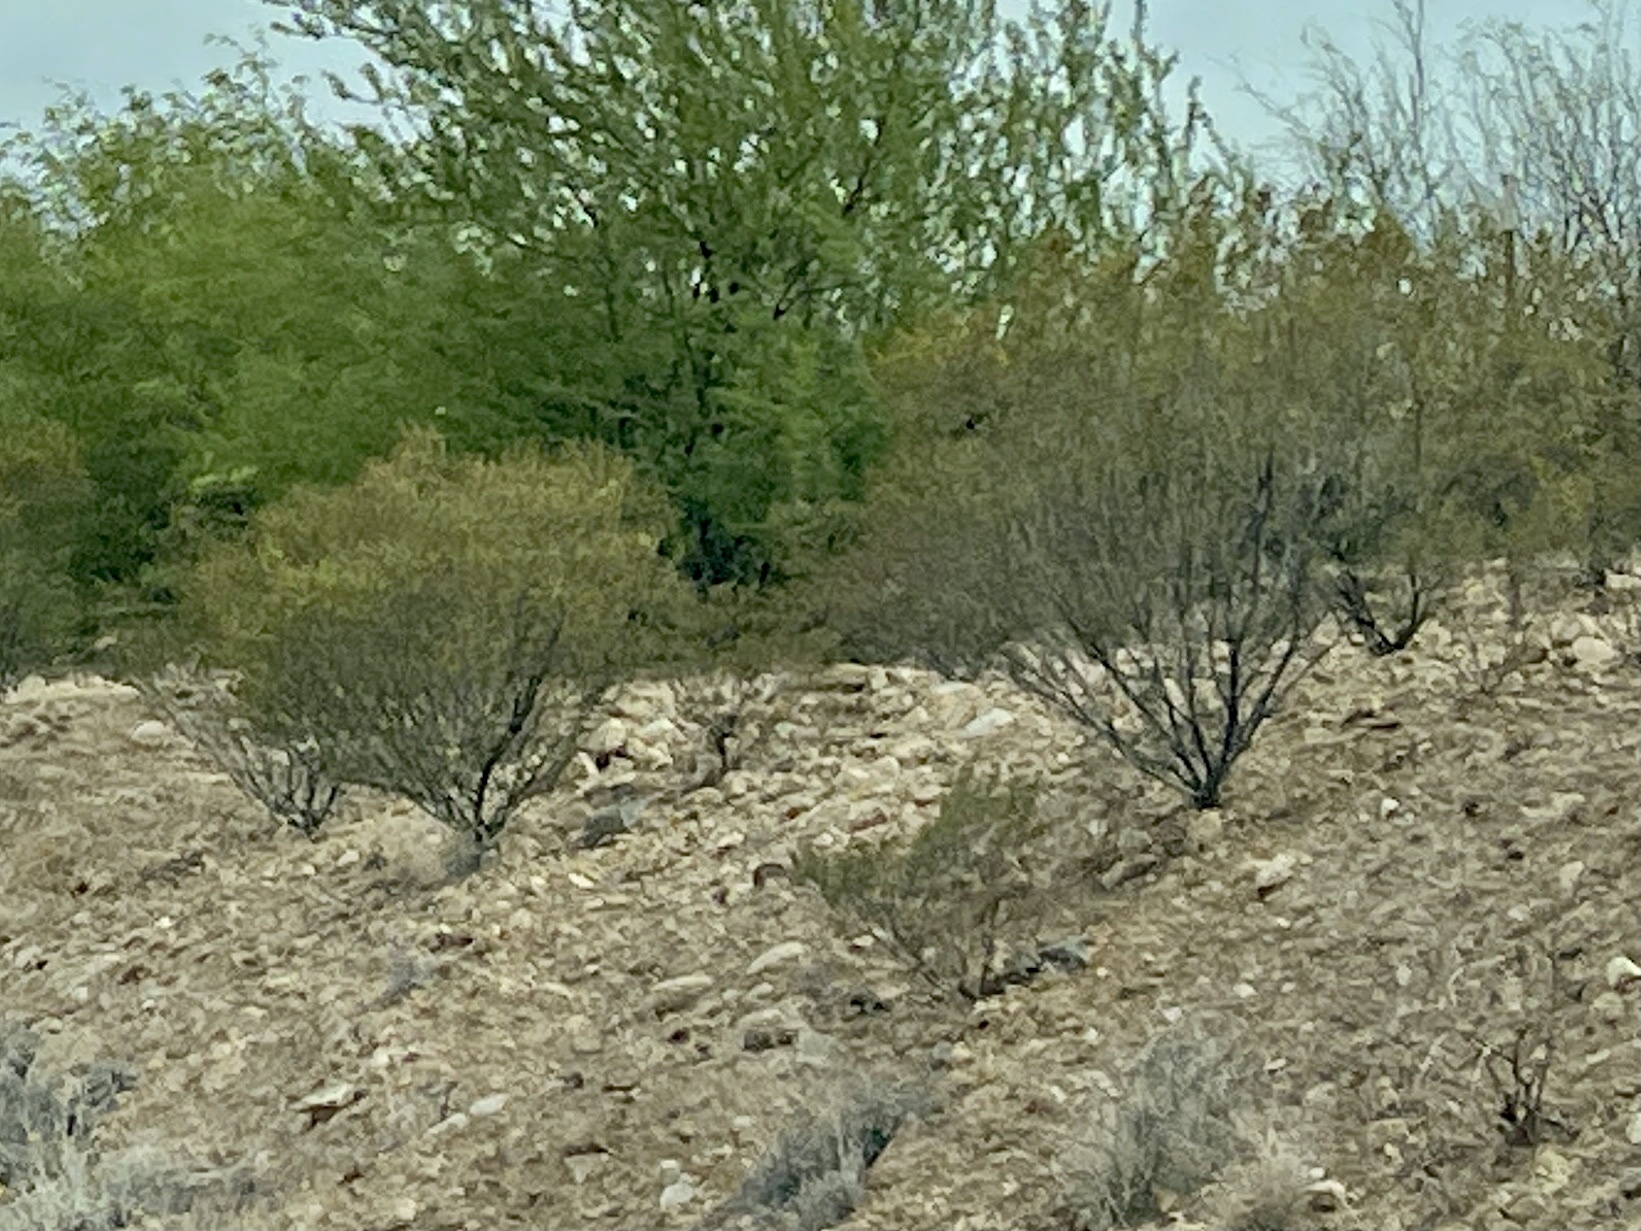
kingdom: Plantae
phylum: Tracheophyta
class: Magnoliopsida
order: Zygophyllales
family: Zygophyllaceae
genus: Larrea
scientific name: Larrea tridentata
